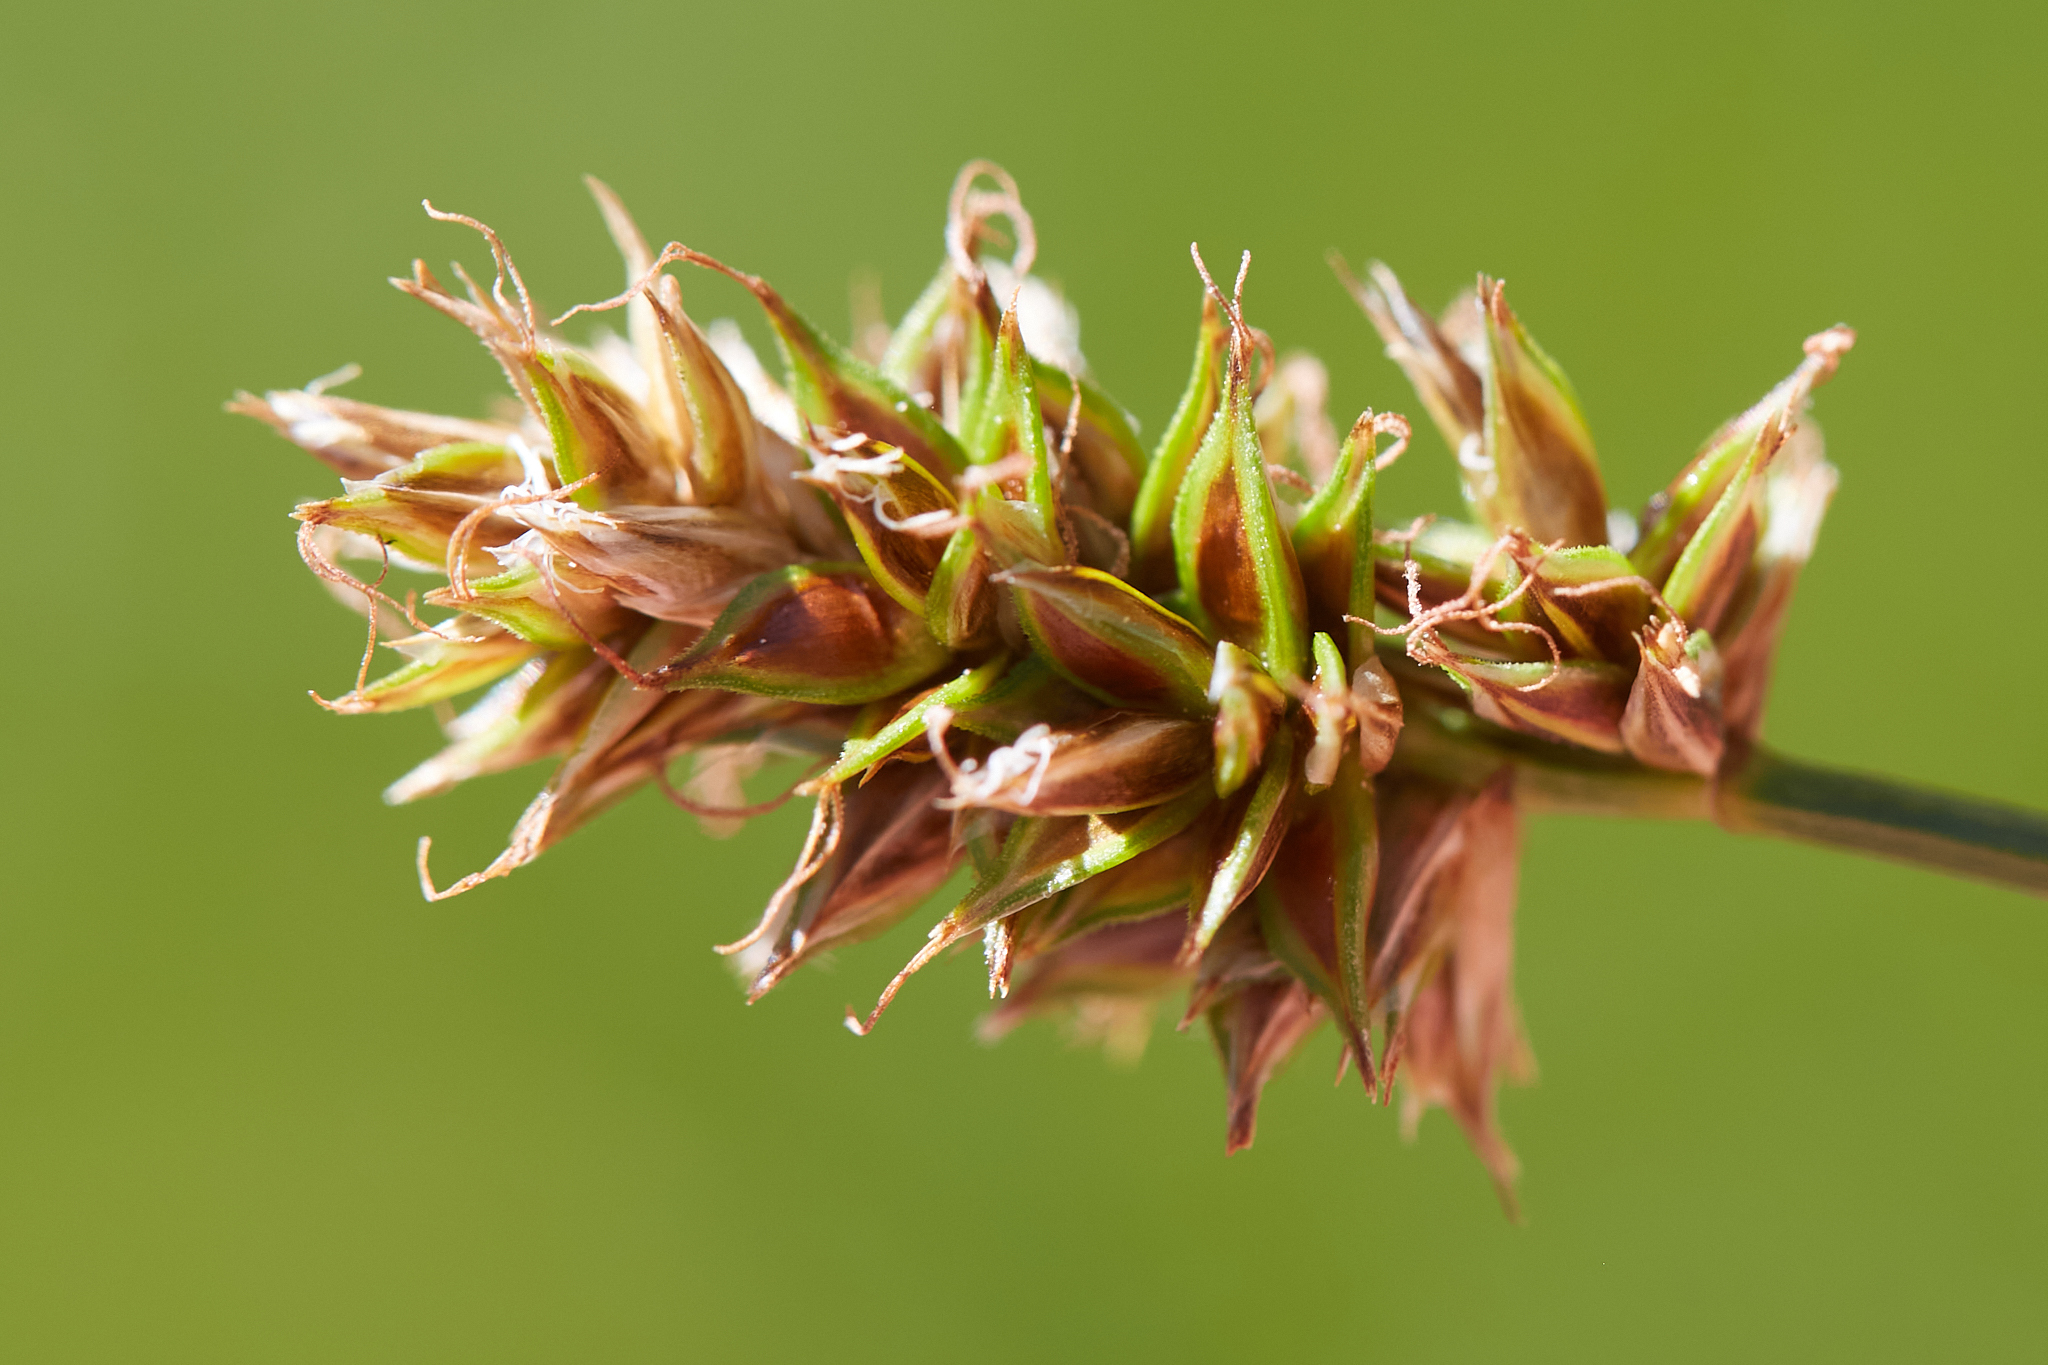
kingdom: Plantae
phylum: Tracheophyta
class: Liliopsida
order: Poales
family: Cyperaceae
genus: Carex
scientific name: Carex hoodii
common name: Hood's sedge
